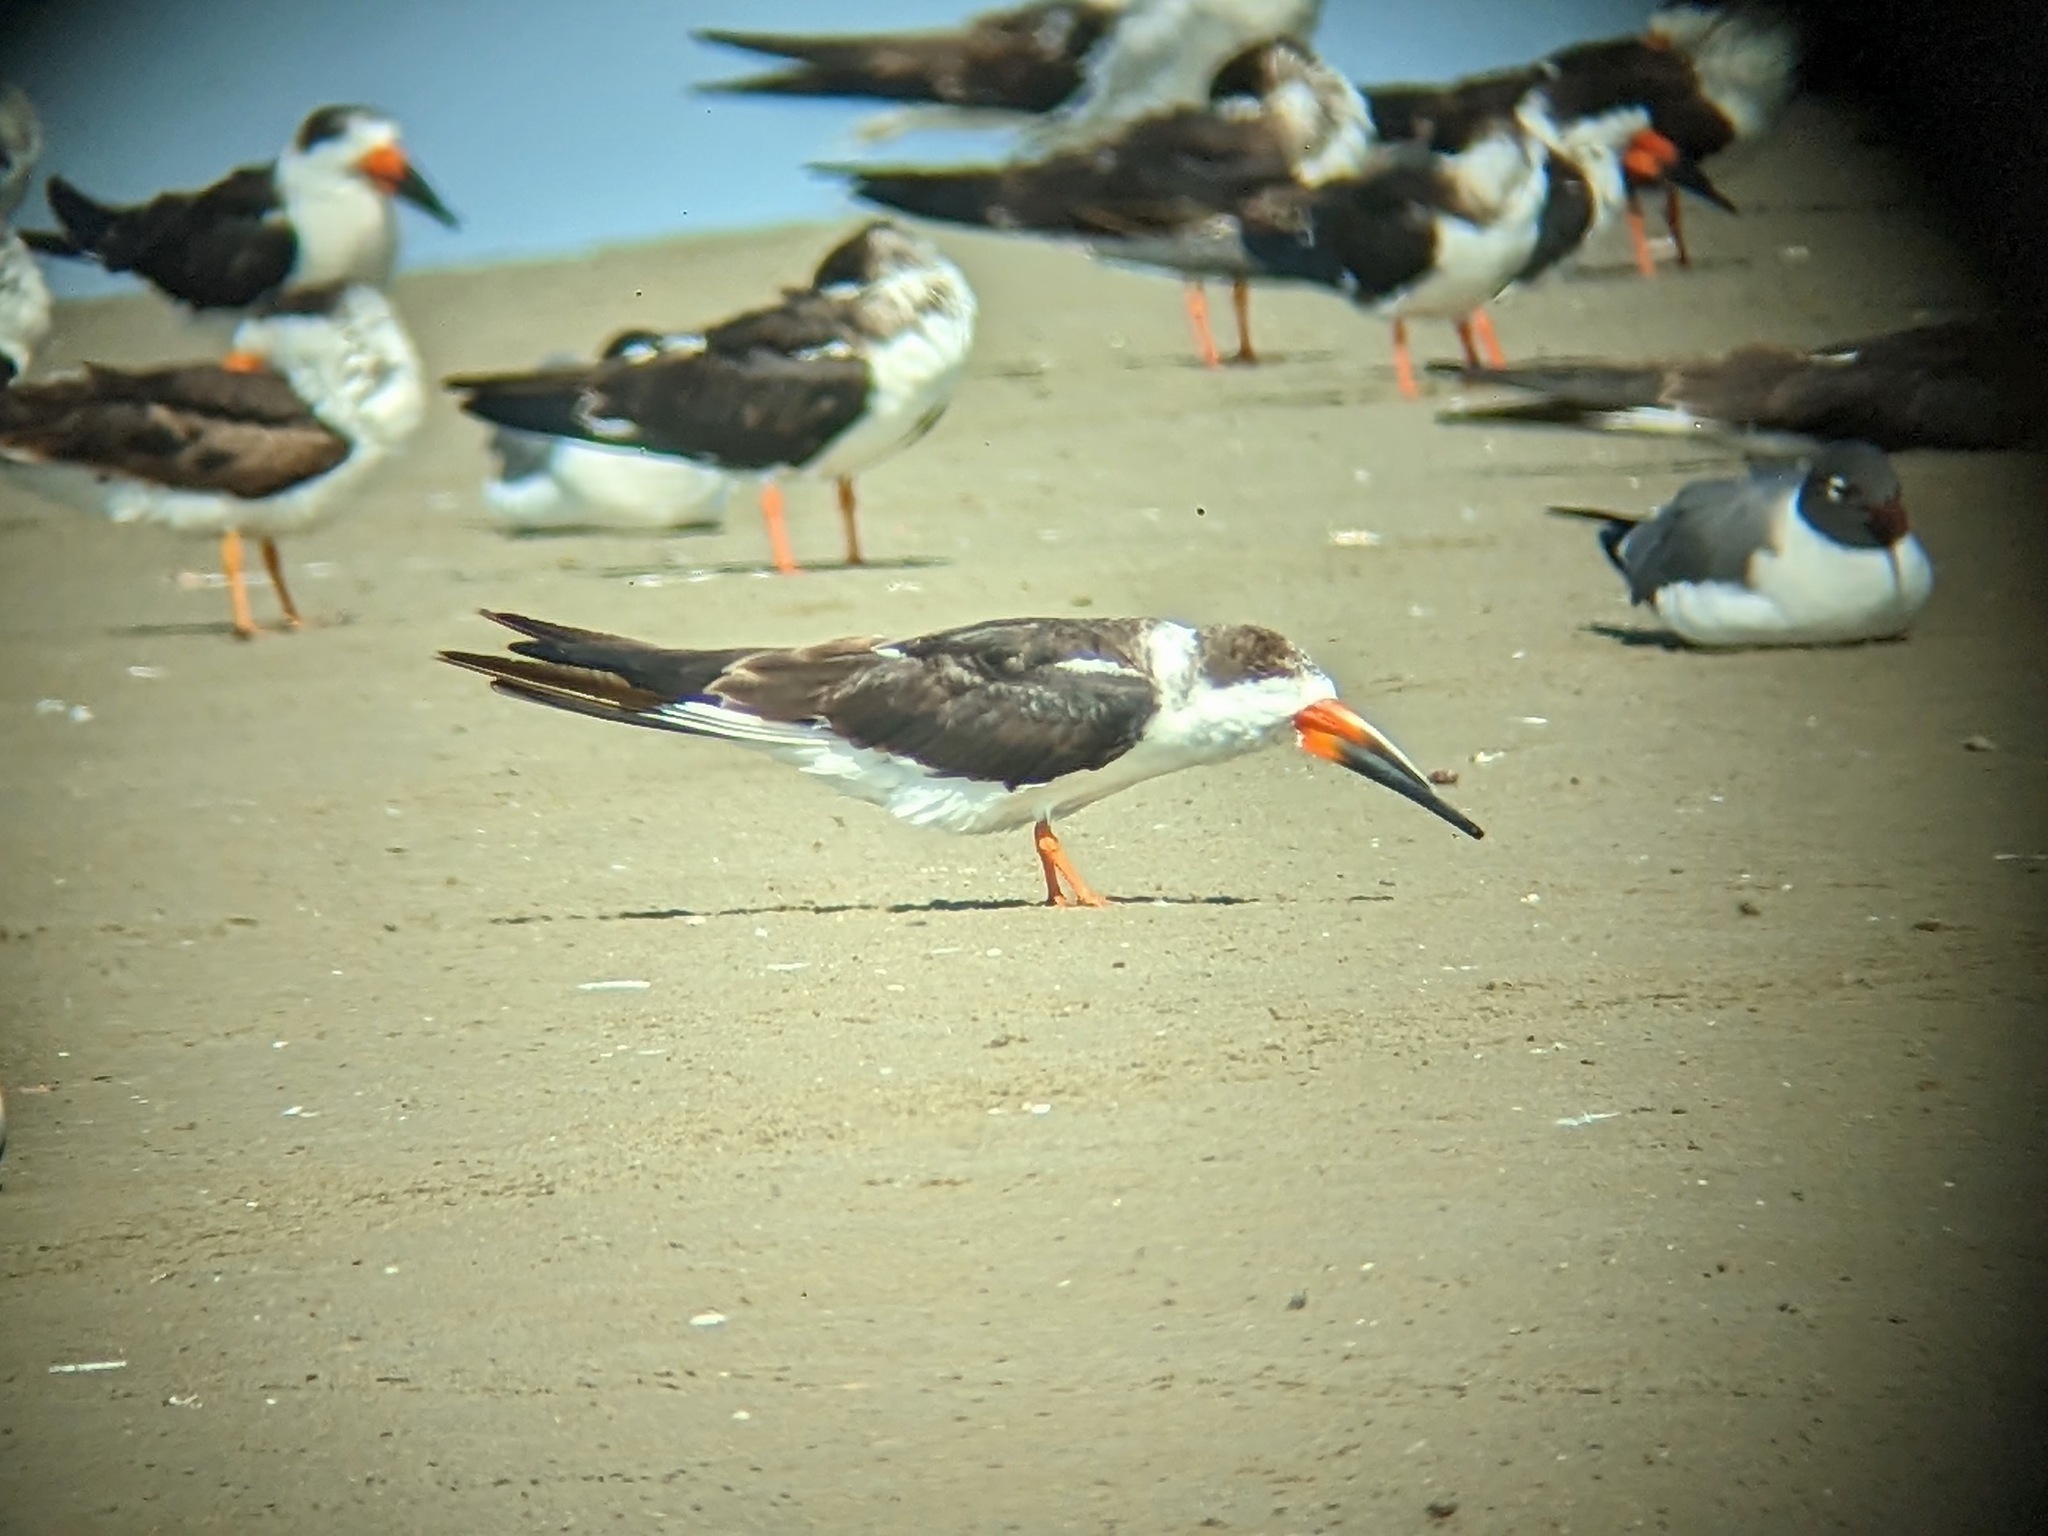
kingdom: Animalia
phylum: Chordata
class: Aves
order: Charadriiformes
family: Laridae
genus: Rynchops
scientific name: Rynchops niger
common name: Black skimmer
